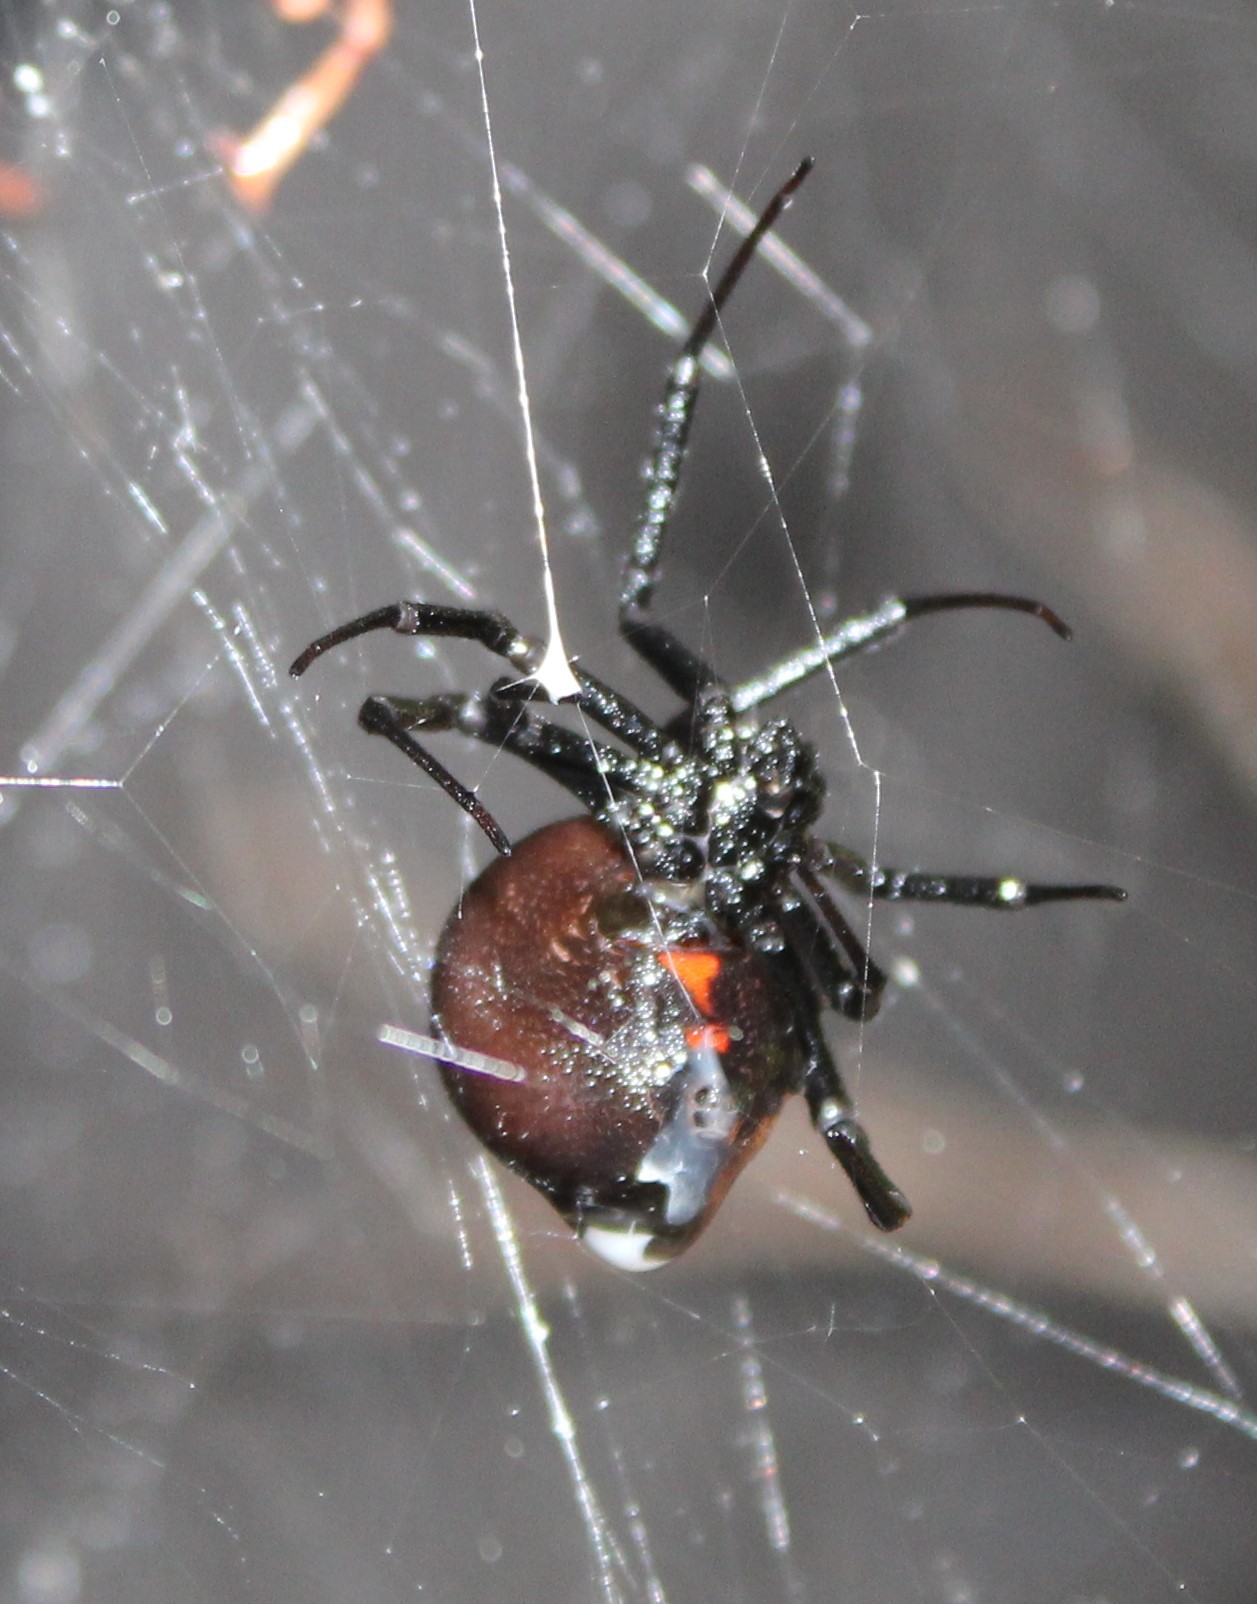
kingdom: Animalia
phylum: Arthropoda
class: Arachnida
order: Araneae
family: Theridiidae
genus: Latrodectus
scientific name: Latrodectus hesperus
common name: Western black widow
